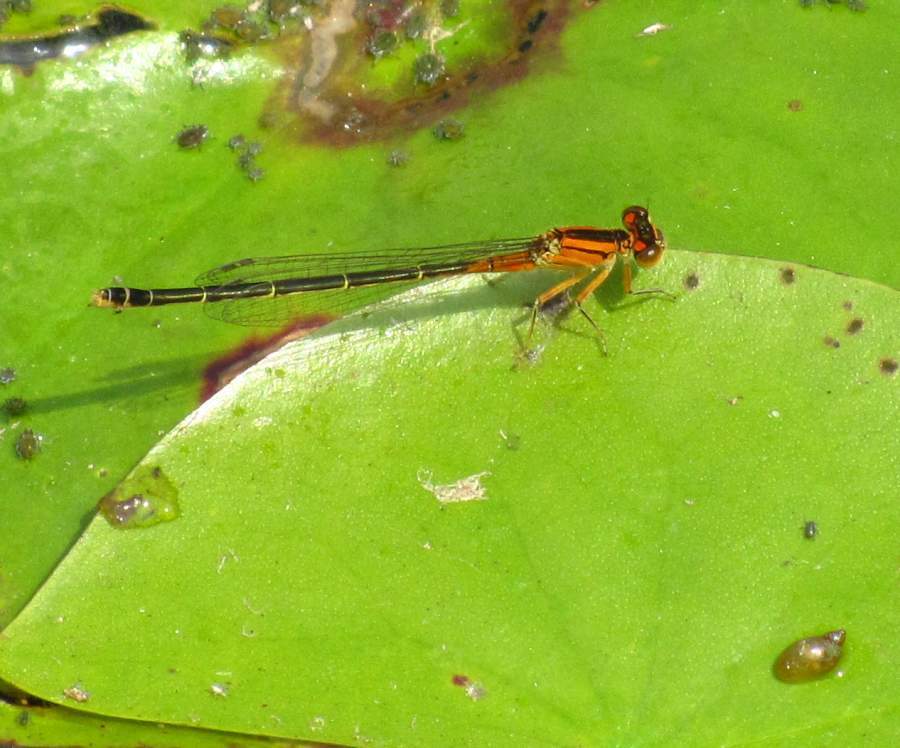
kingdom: Animalia
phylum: Arthropoda
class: Insecta
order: Odonata
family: Coenagrionidae
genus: Ischnura
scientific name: Ischnura verticalis
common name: Eastern forktail
